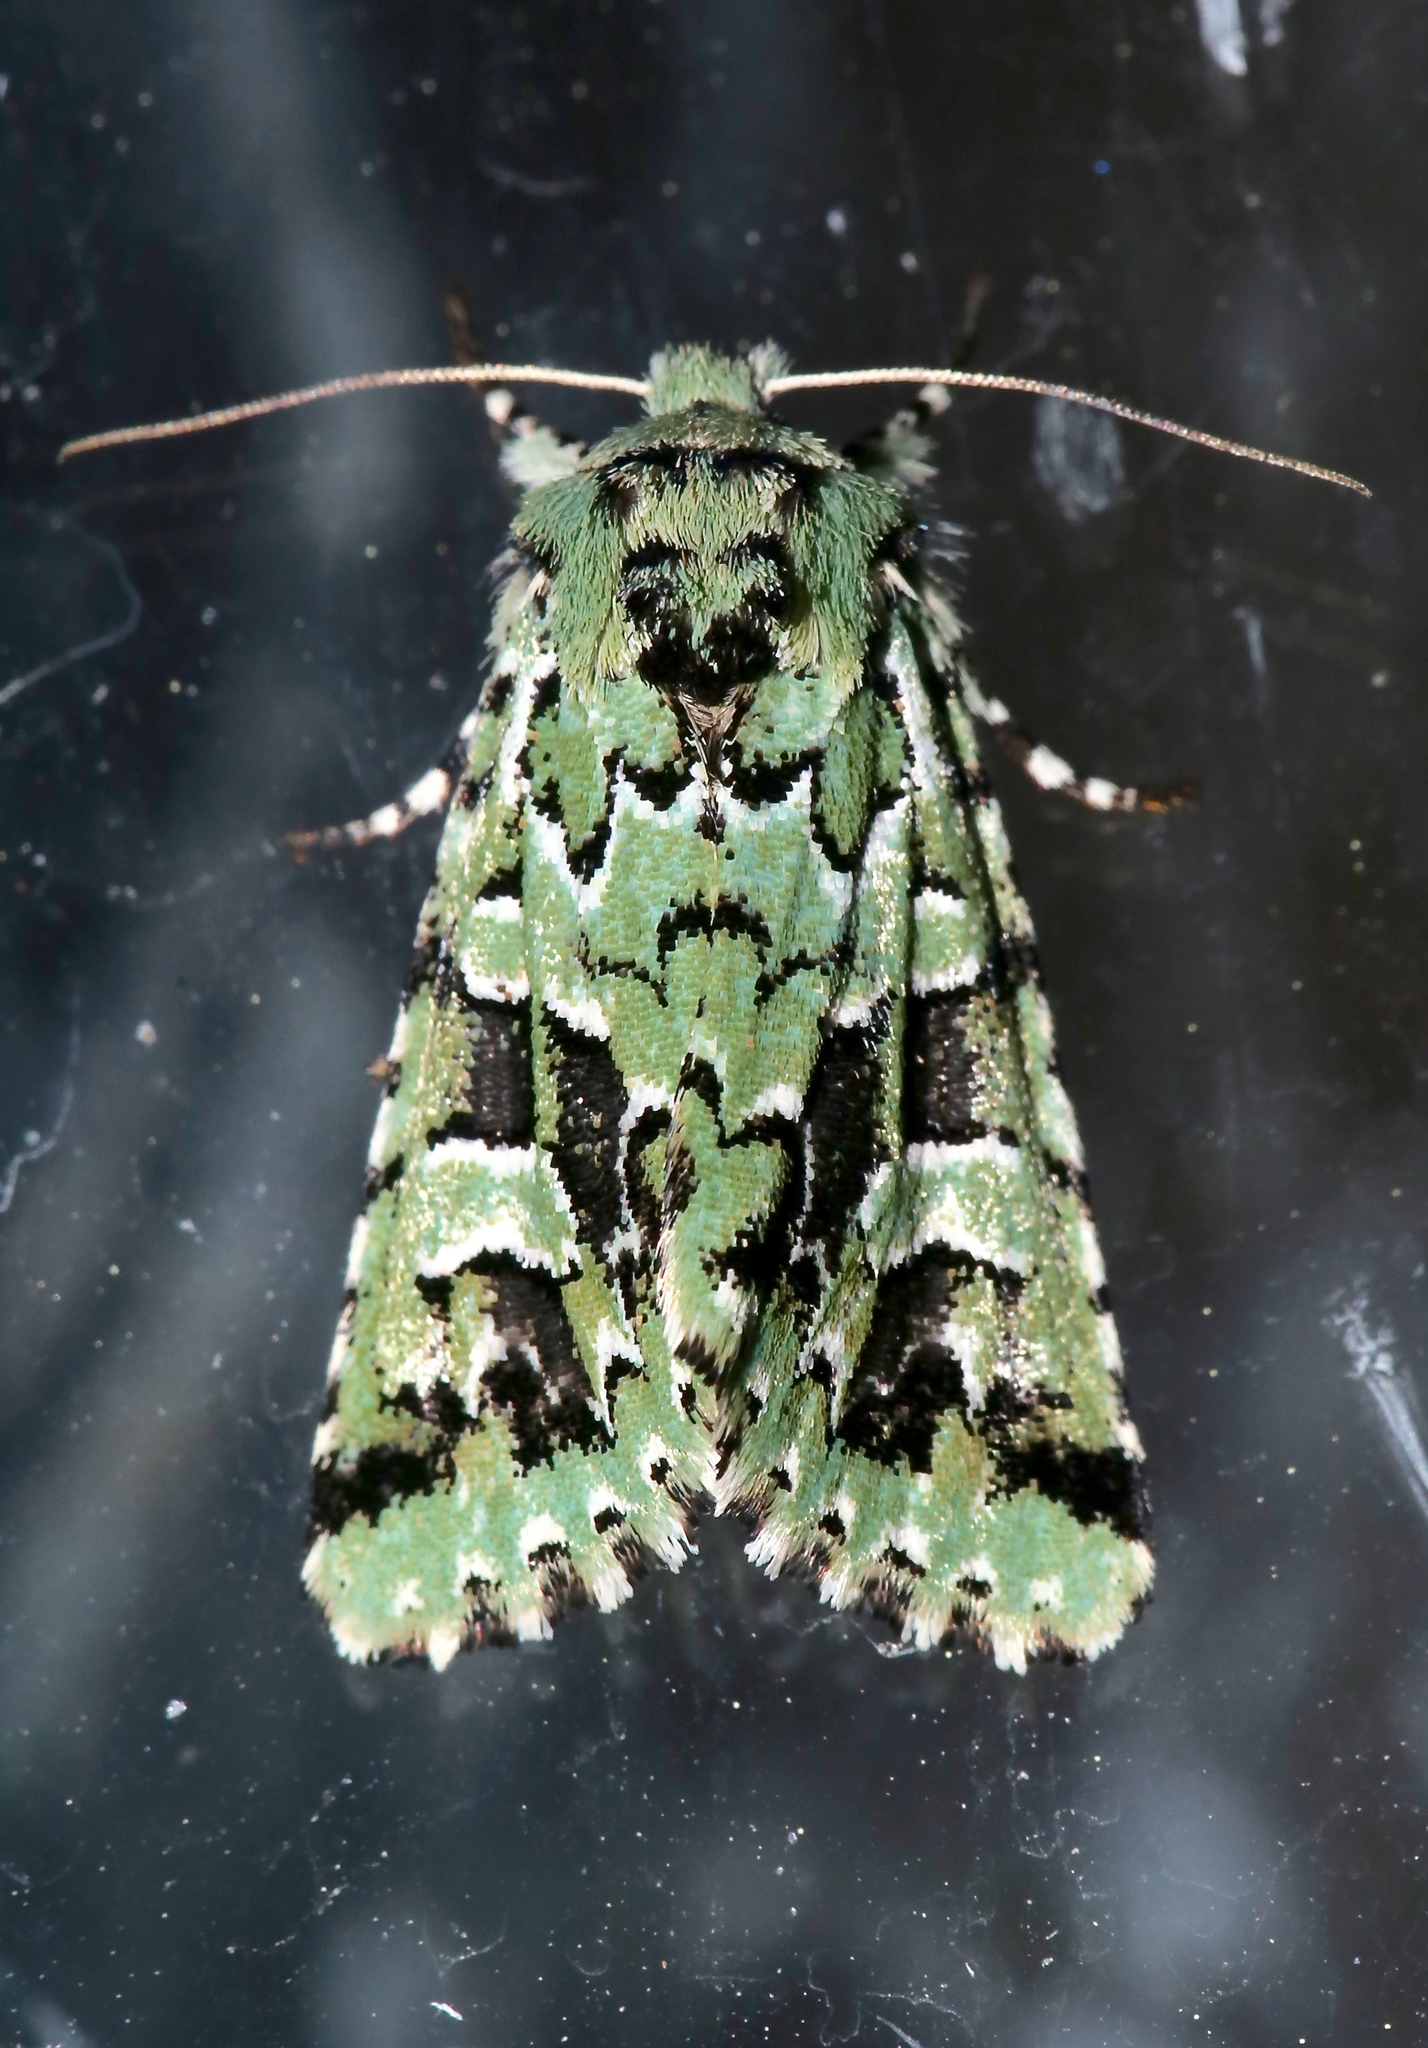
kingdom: Animalia
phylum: Arthropoda
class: Insecta
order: Lepidoptera
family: Noctuidae
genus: Feralia
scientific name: Feralia comstocki
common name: Comstock's sallow
